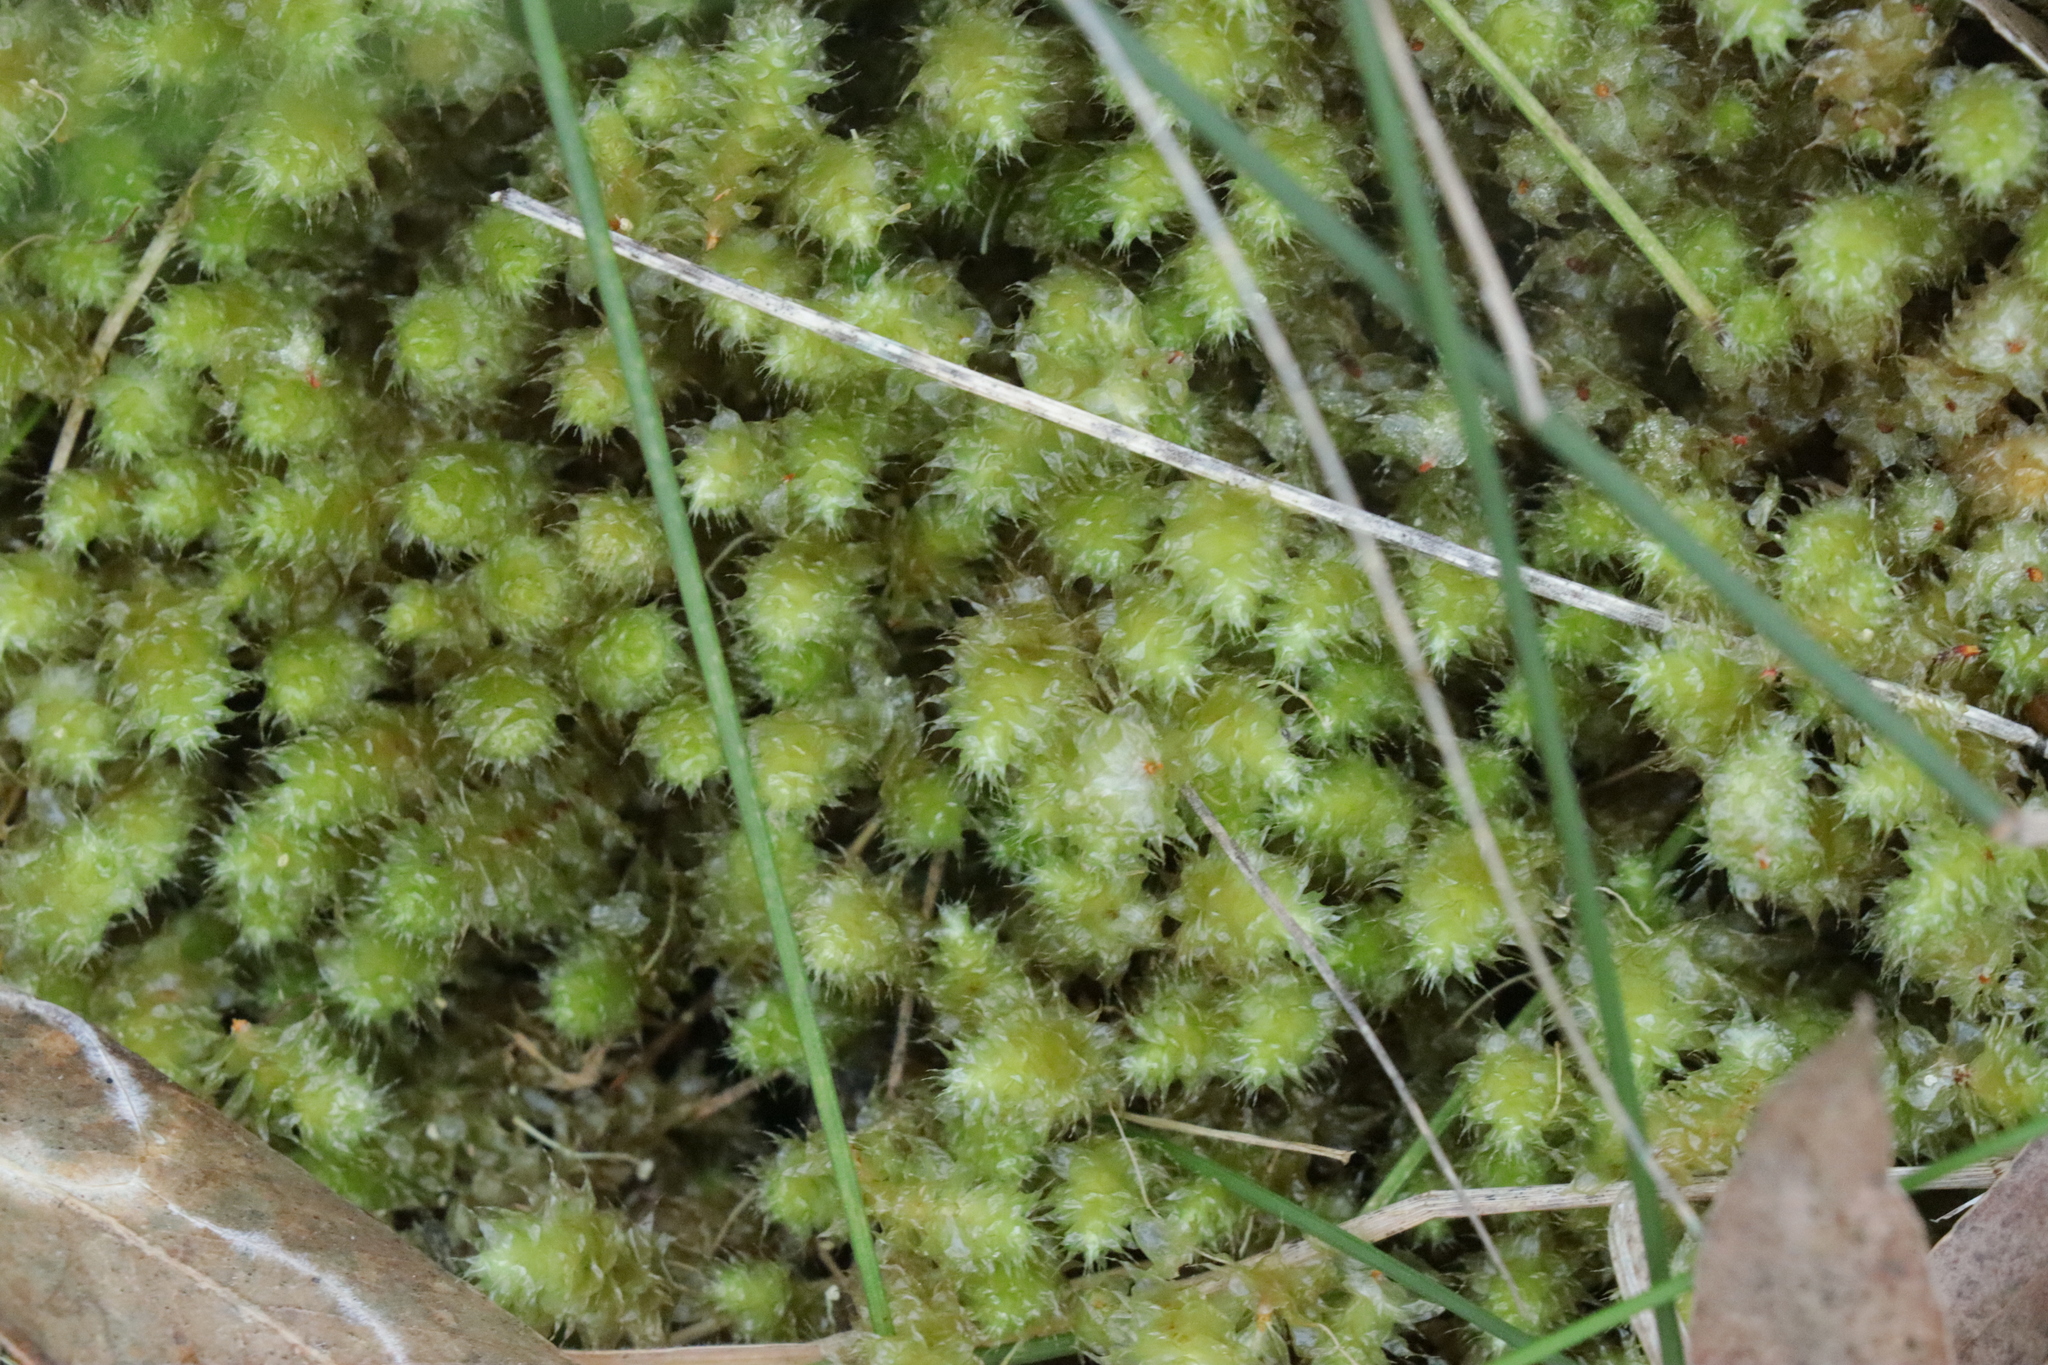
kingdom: Plantae
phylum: Bryophyta
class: Bryopsida
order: Ptychomniales
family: Ptychomniaceae
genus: Ptychomnion
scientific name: Ptychomnion aciculare
